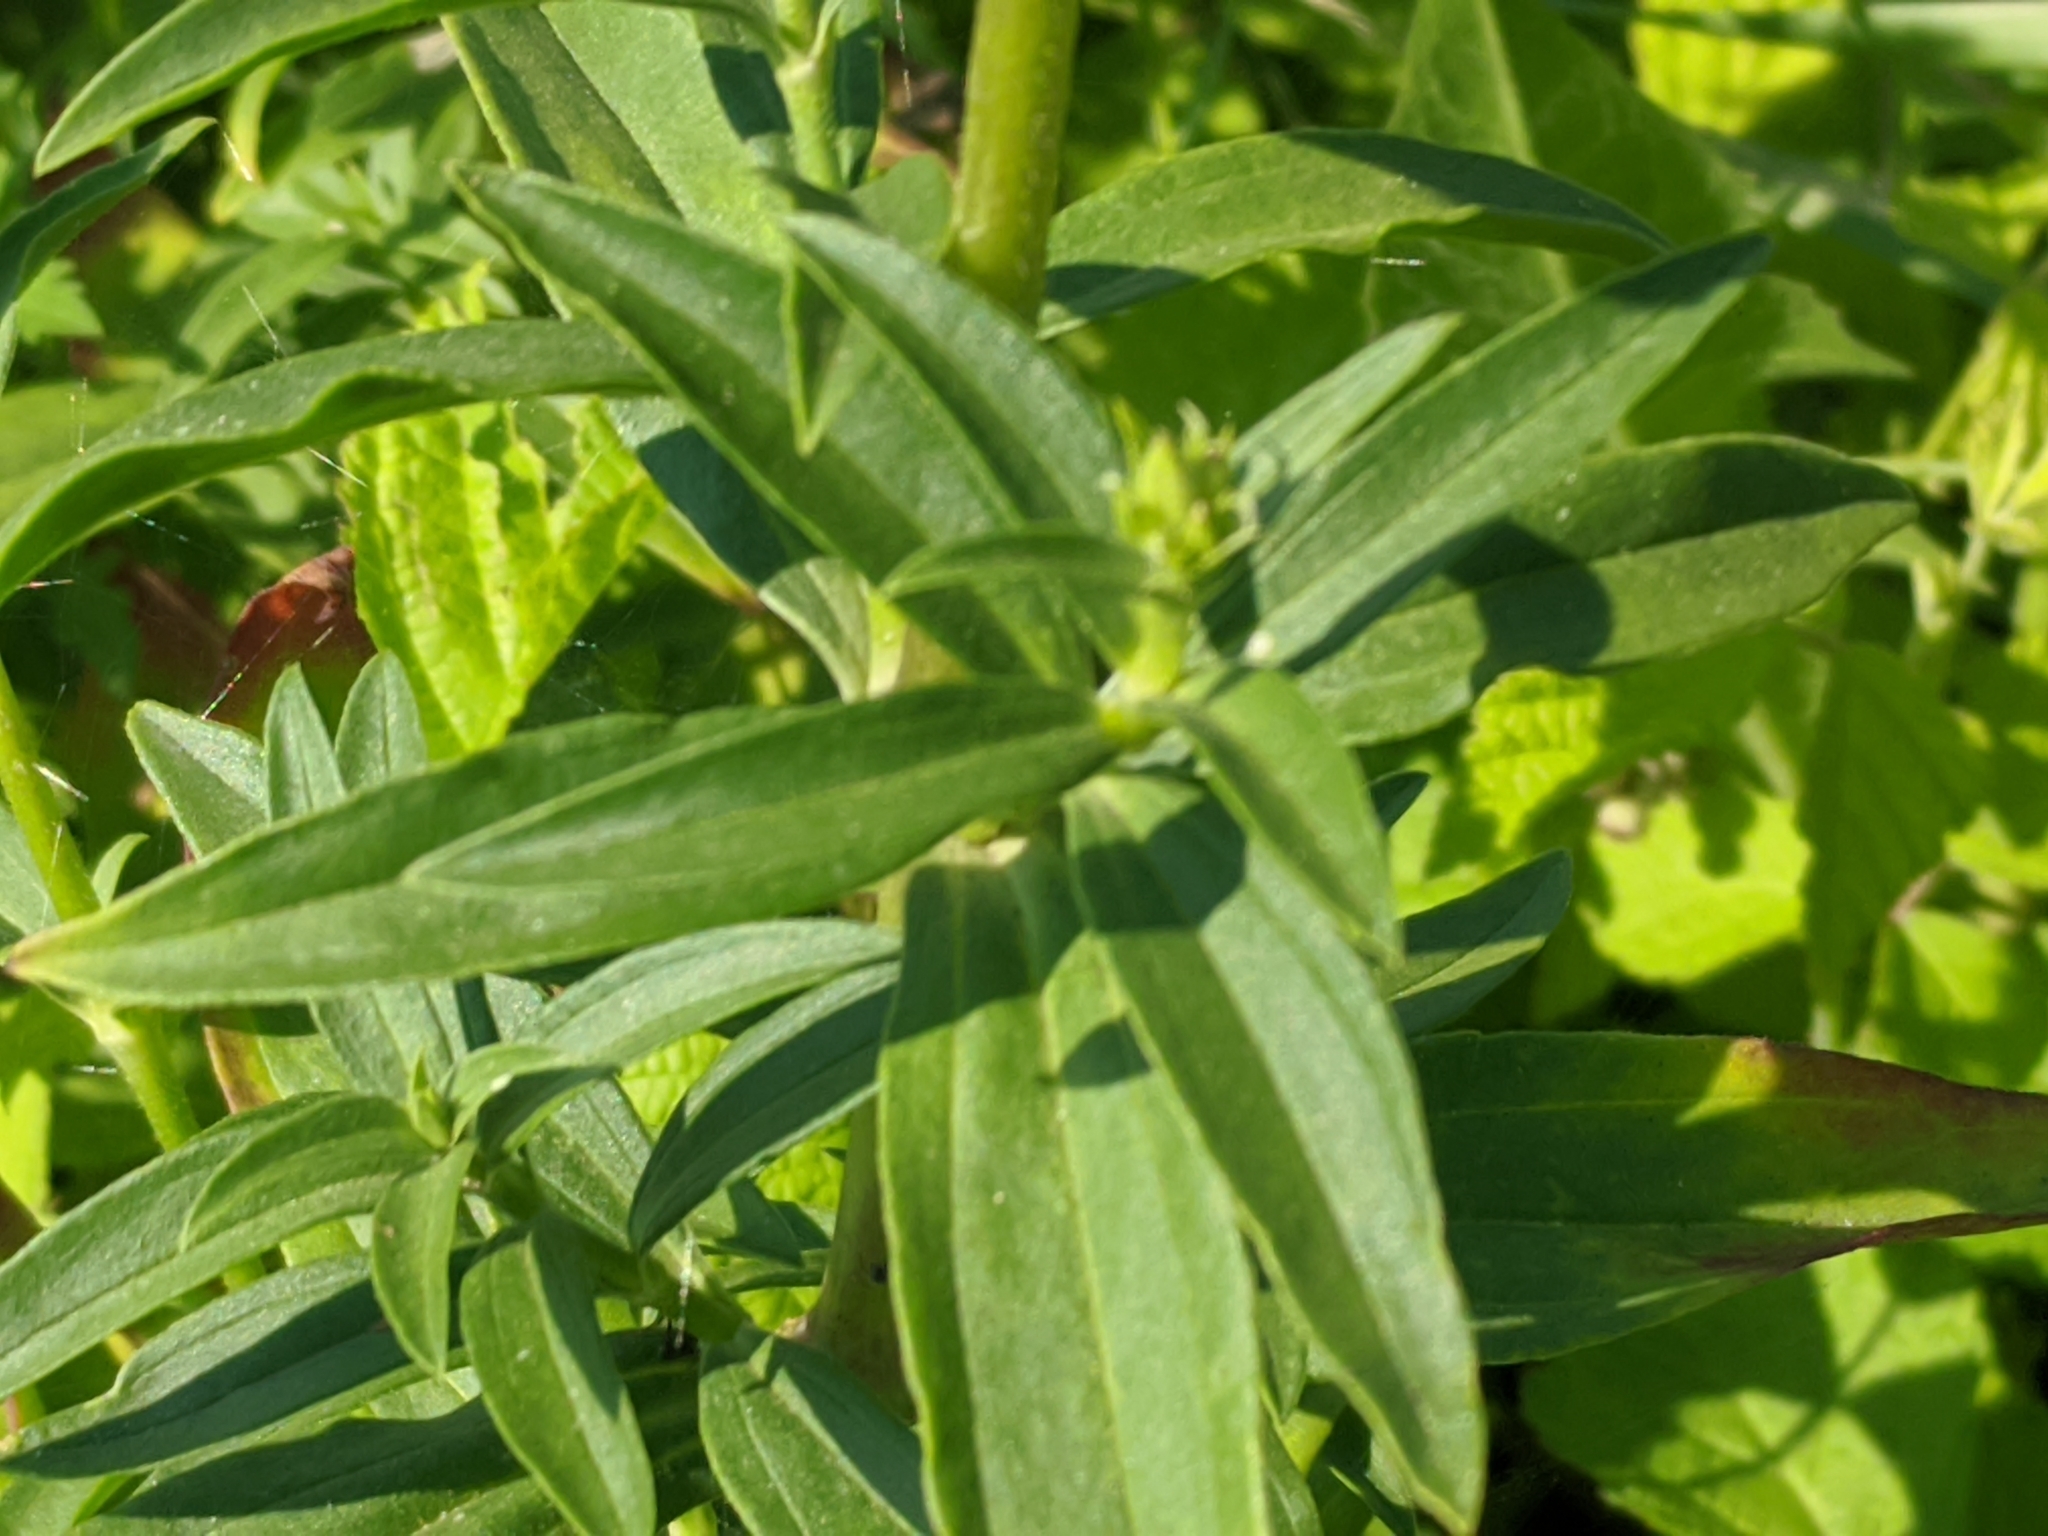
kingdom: Plantae
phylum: Tracheophyta
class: Magnoliopsida
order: Caryophyllales
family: Caryophyllaceae
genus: Saponaria
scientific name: Saponaria officinalis
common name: Soapwort
